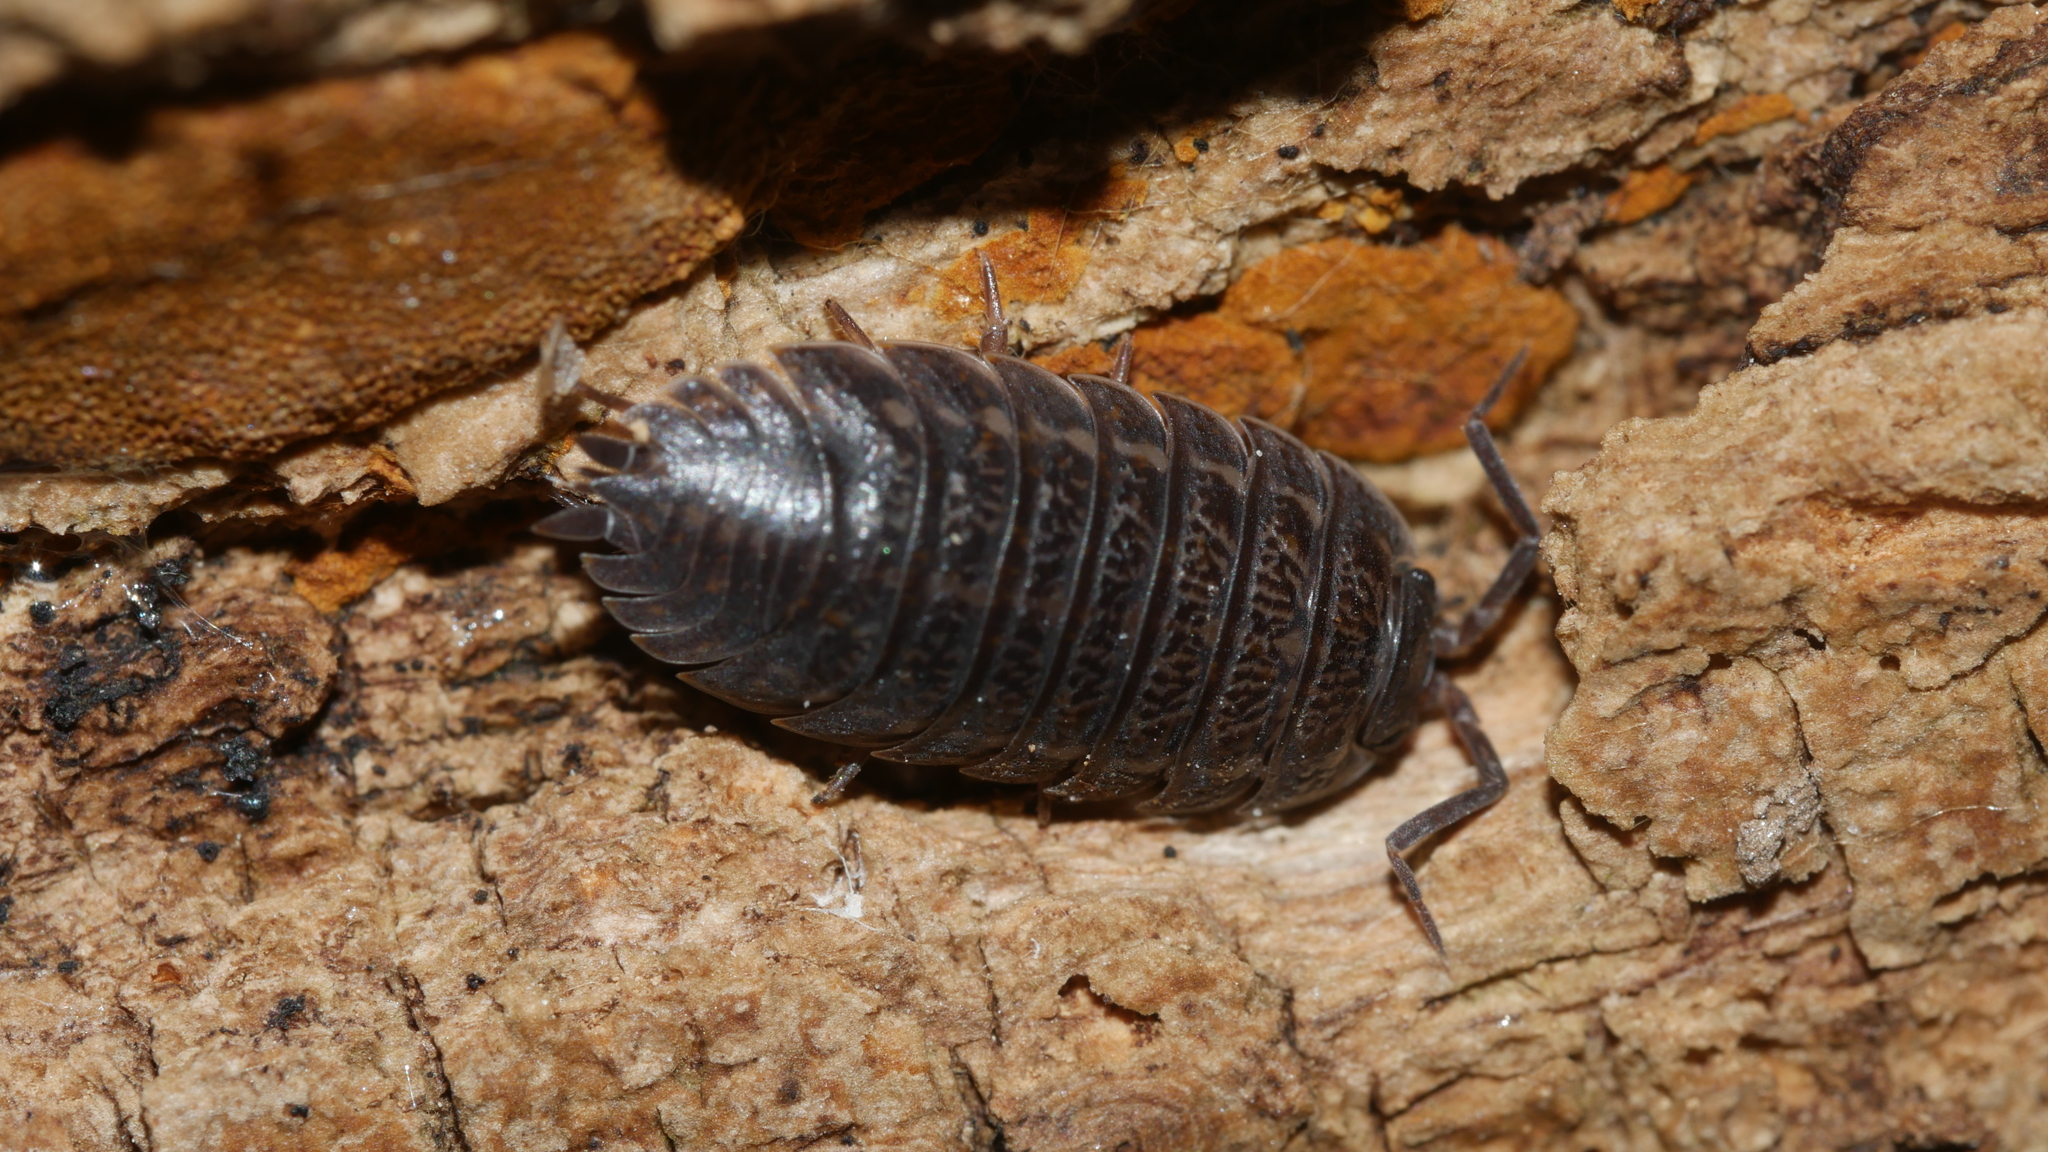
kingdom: Animalia
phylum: Arthropoda
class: Malacostraca
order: Isopoda
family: Trachelipodidae
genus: Trachelipus
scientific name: Trachelipus rathkii
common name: Isopod
